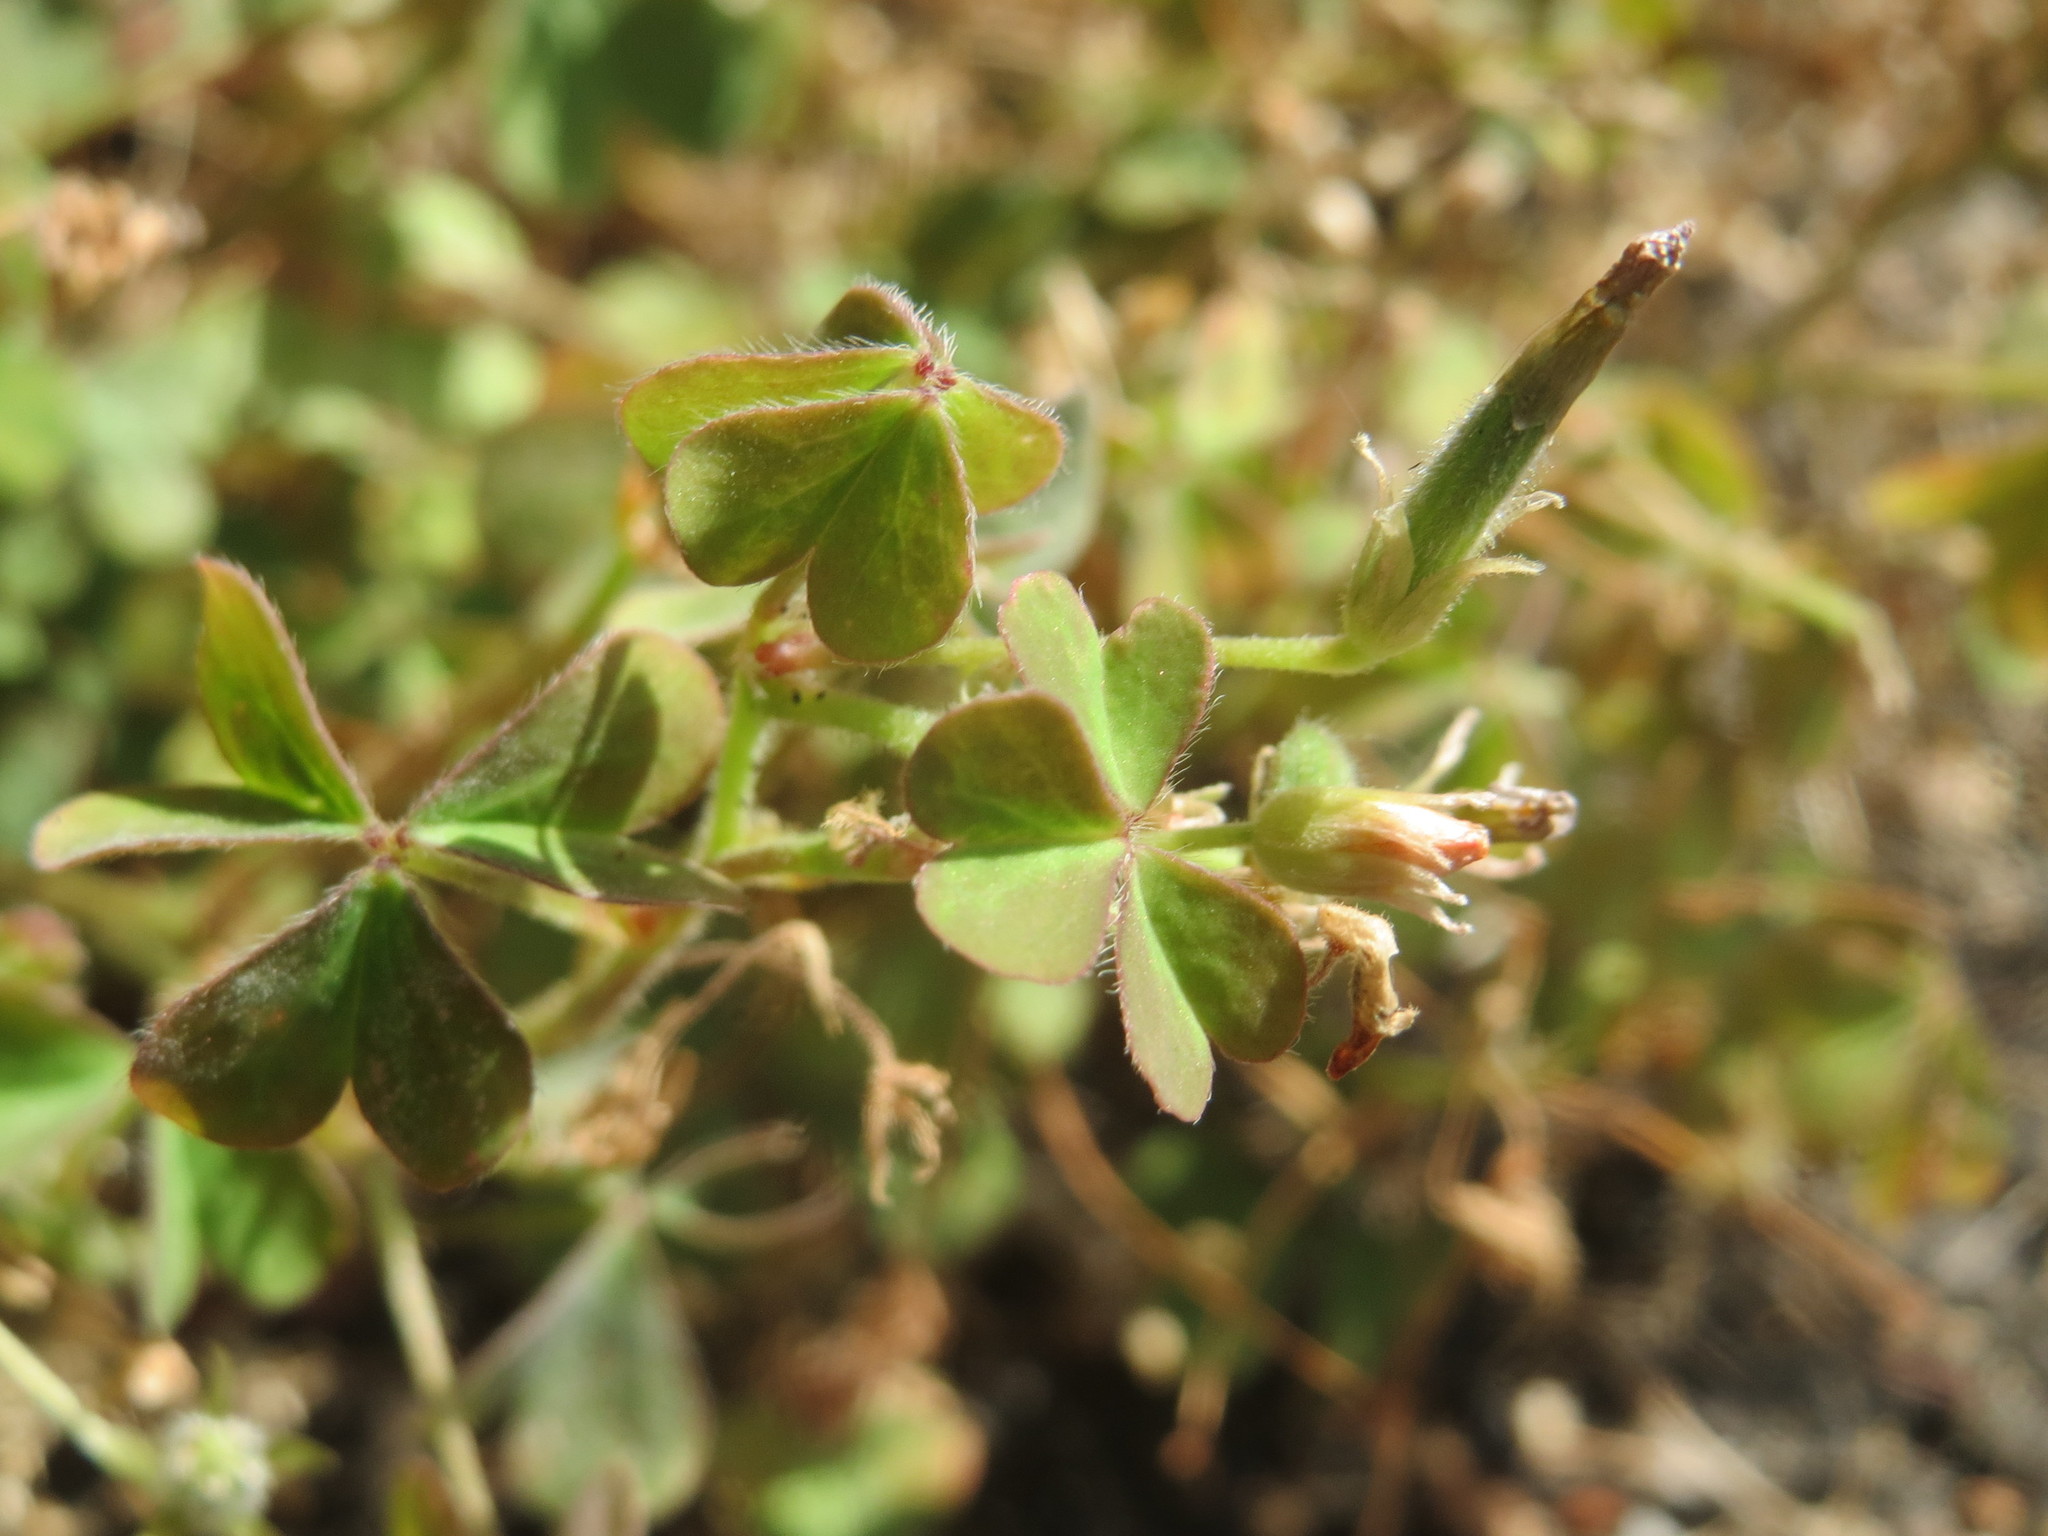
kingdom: Plantae
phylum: Tracheophyta
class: Magnoliopsida
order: Oxalidales
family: Oxalidaceae
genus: Oxalis
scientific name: Oxalis corniculata
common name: Procumbent yellow-sorrel
